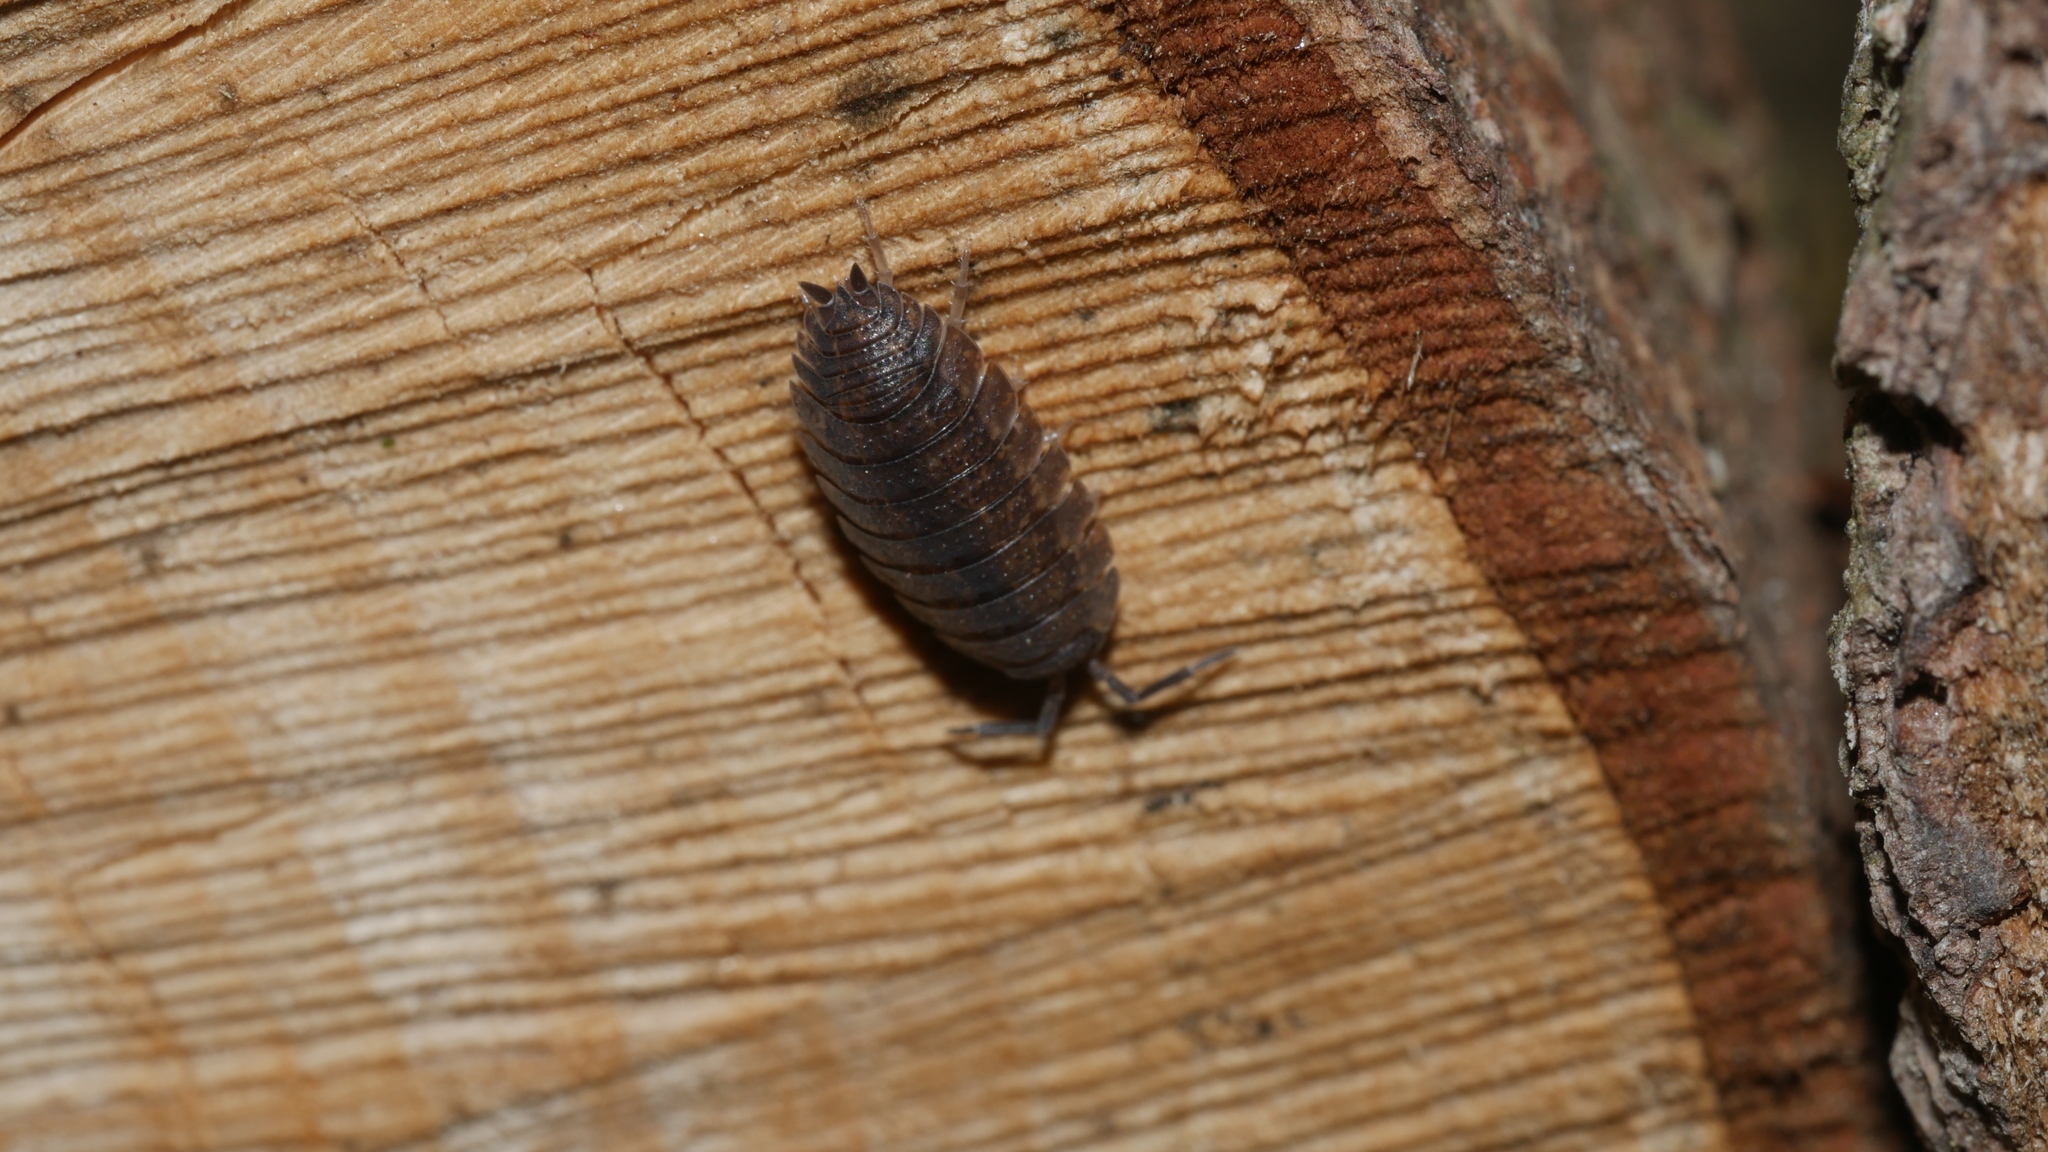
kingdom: Animalia
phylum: Arthropoda
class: Malacostraca
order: Isopoda
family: Porcellionidae
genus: Porcellio
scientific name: Porcellio scaber
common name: Common rough woodlouse
